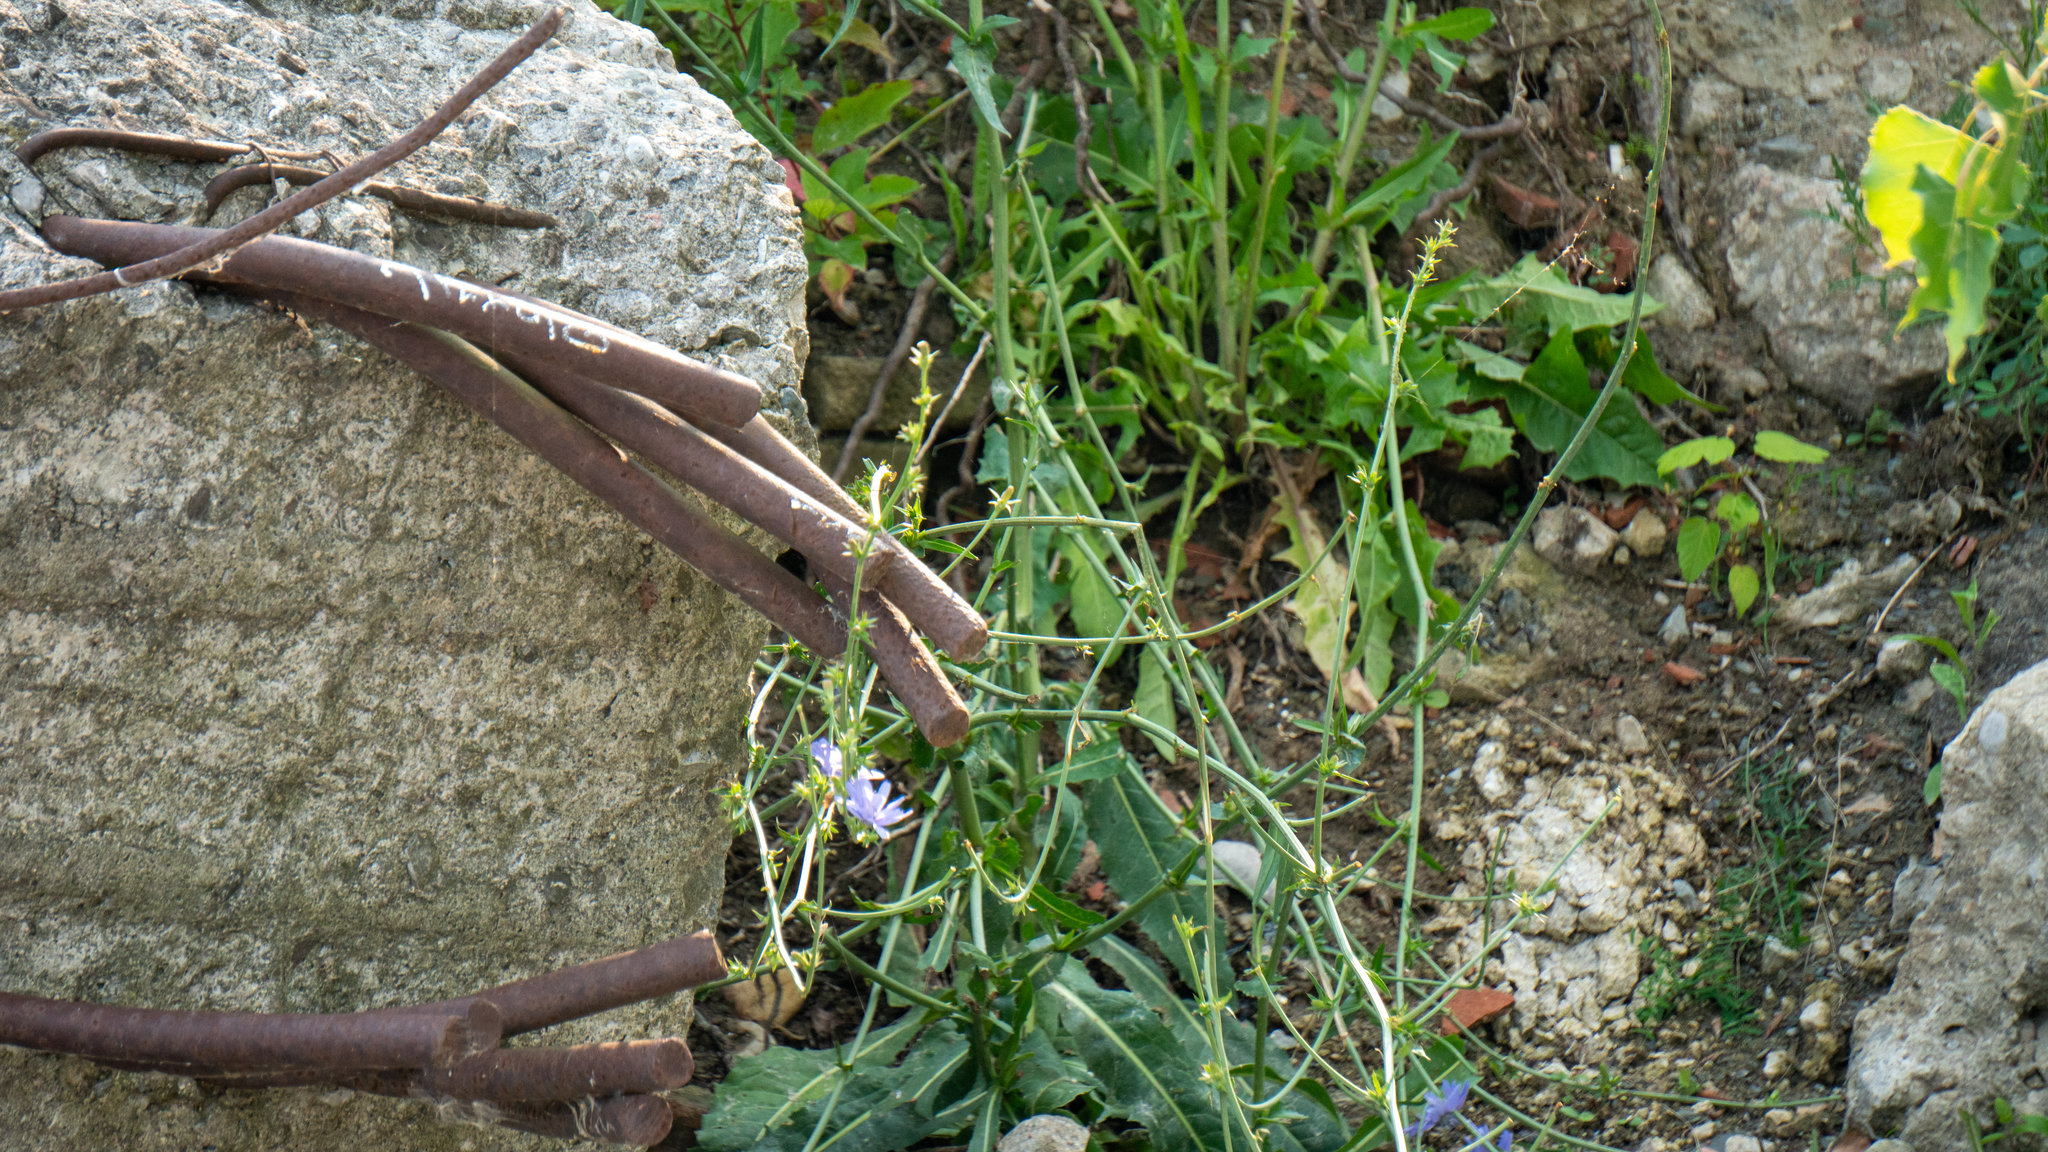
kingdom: Plantae
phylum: Tracheophyta
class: Magnoliopsida
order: Asterales
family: Asteraceae
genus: Cichorium
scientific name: Cichorium intybus
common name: Chicory
